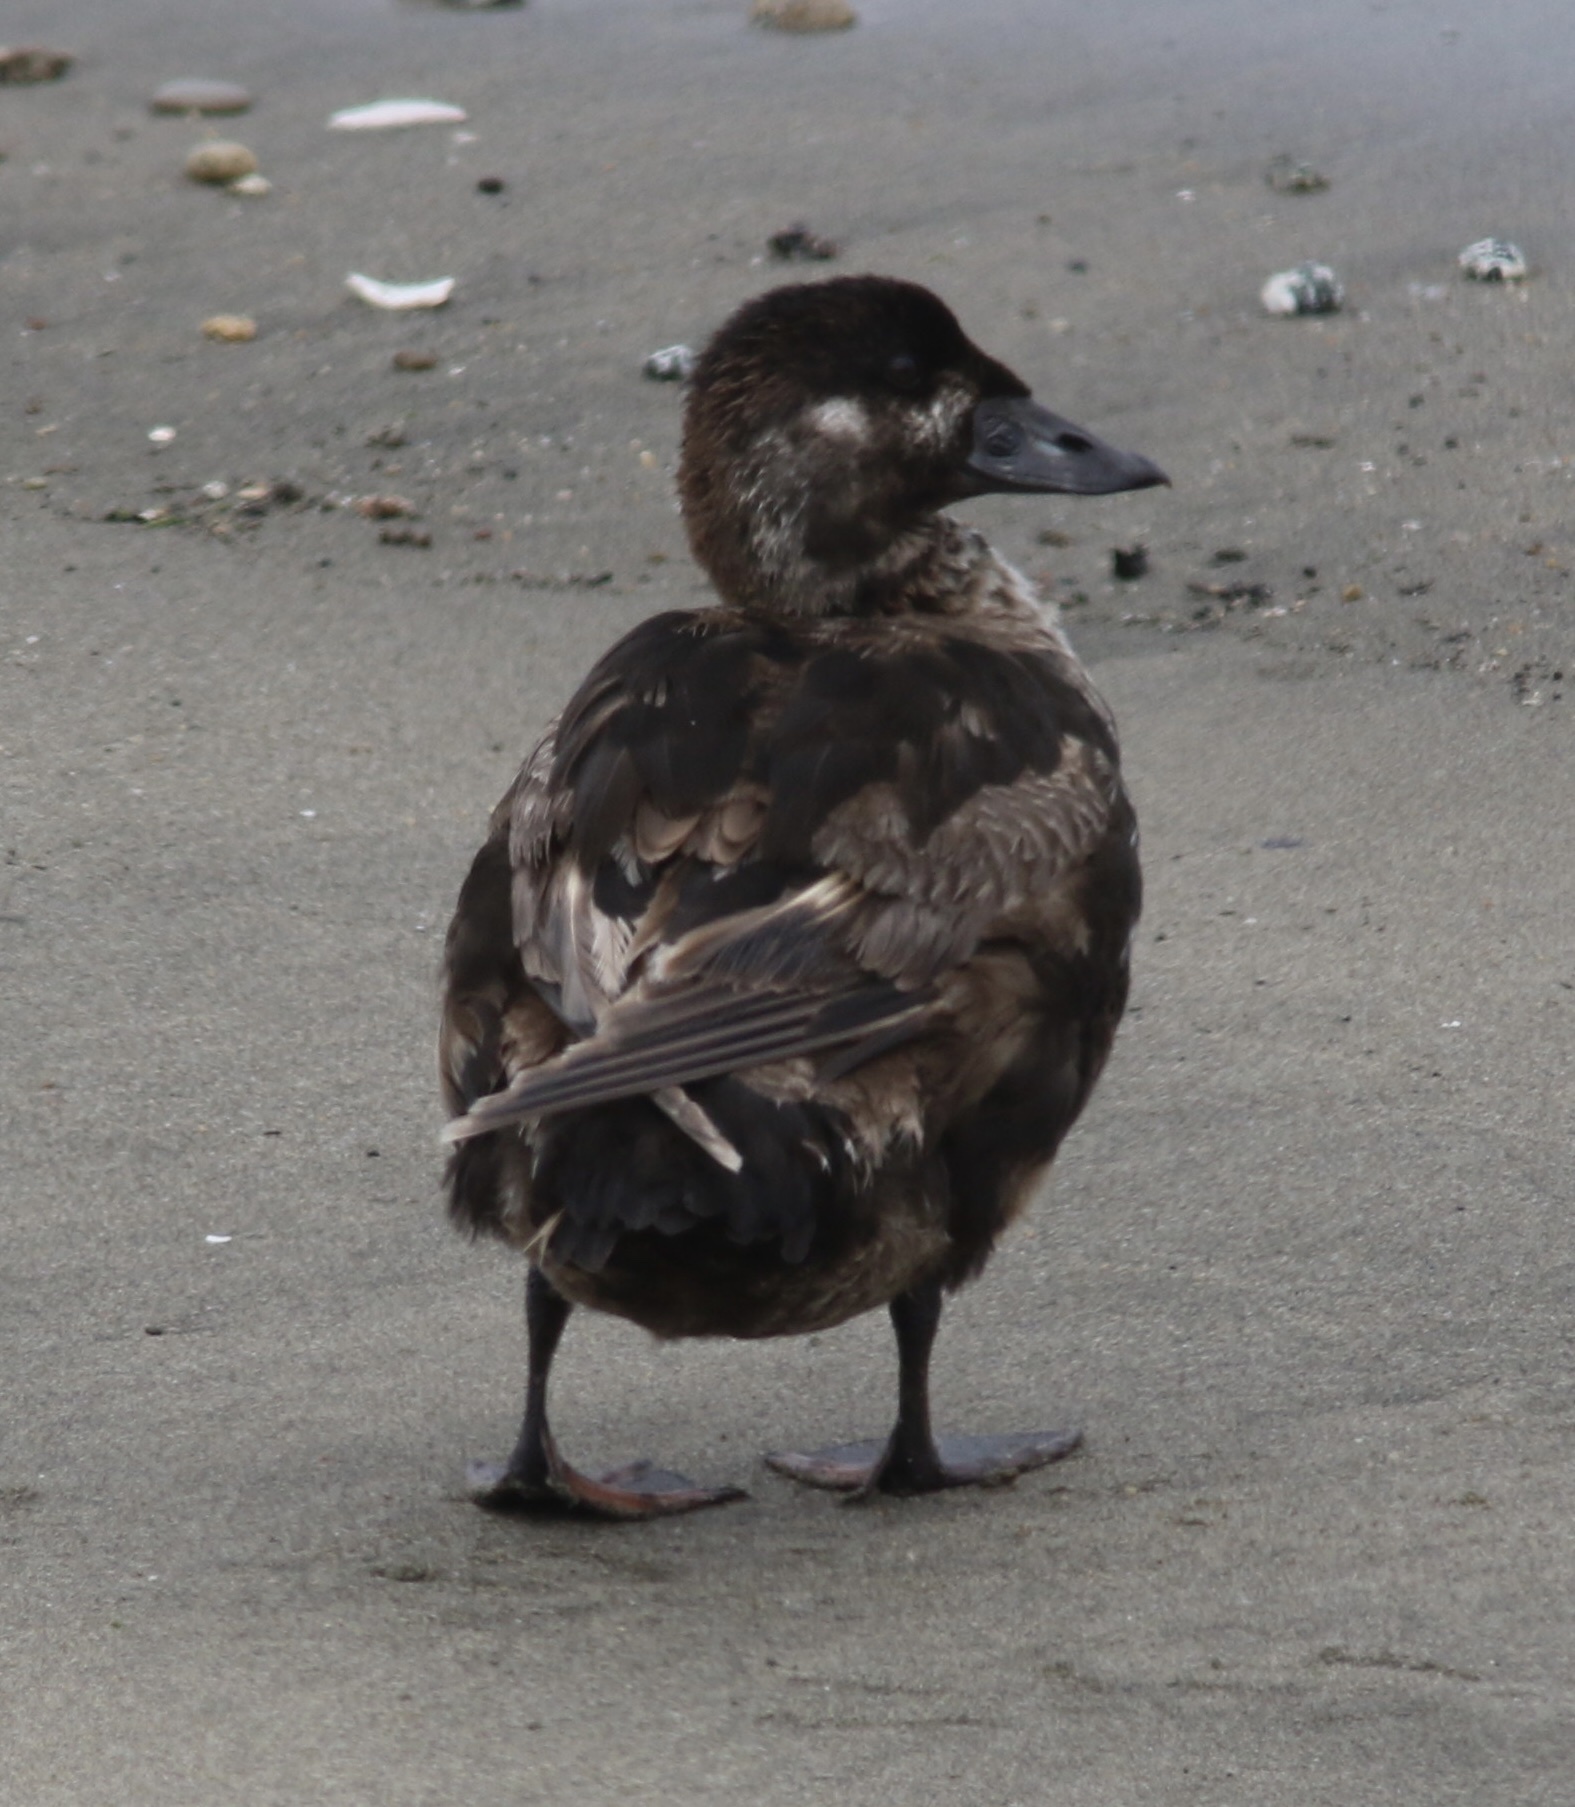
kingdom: Animalia
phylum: Chordata
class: Aves
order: Anseriformes
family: Anatidae
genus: Melanitta
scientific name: Melanitta perspicillata
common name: Surf scoter
